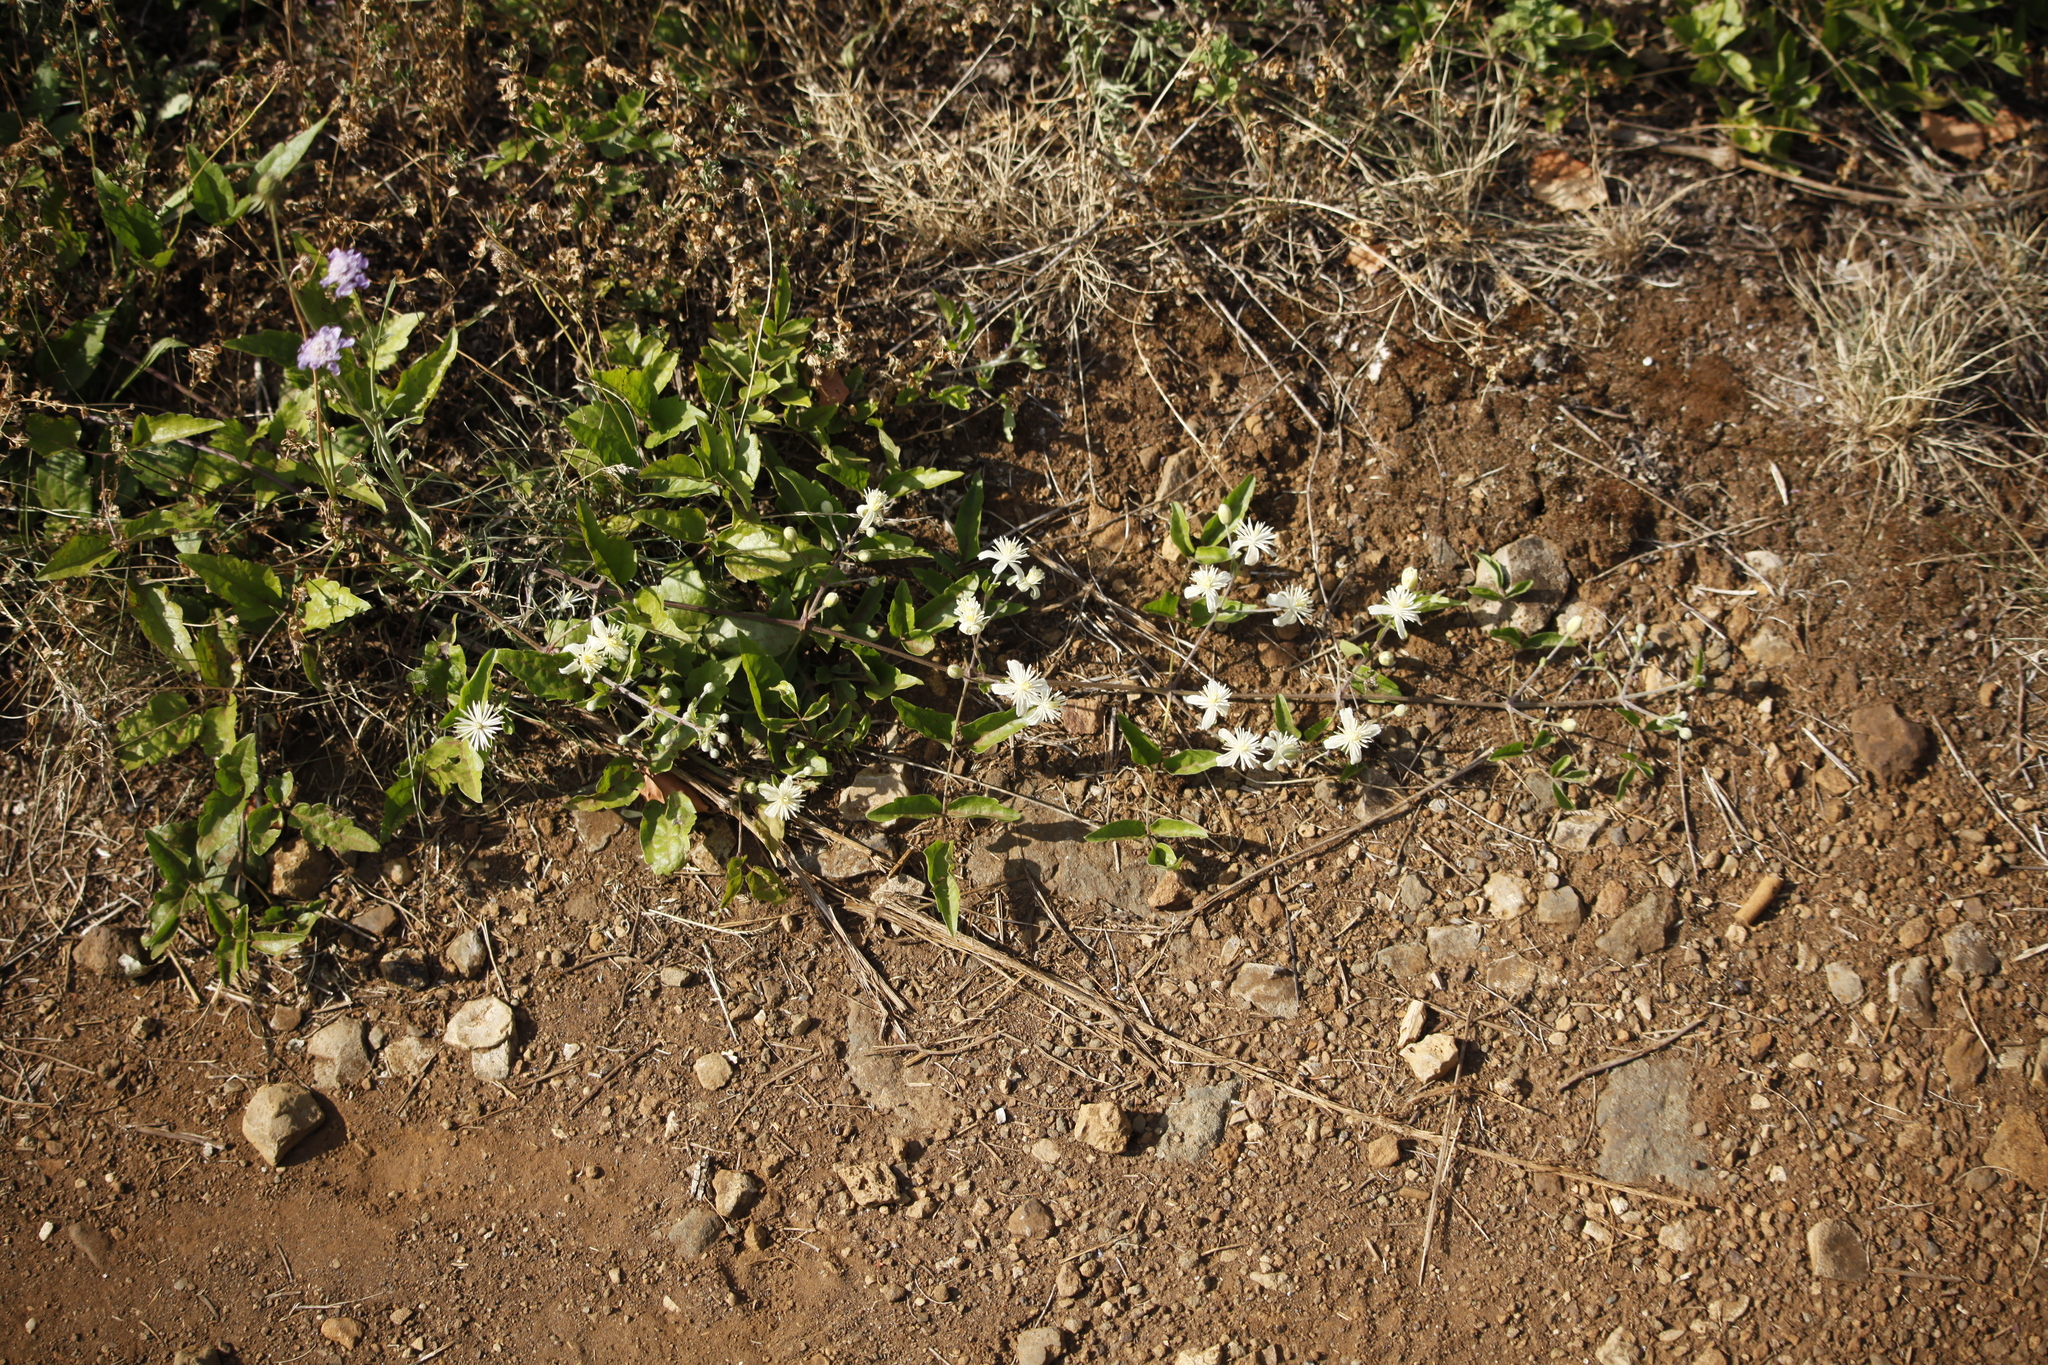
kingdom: Plantae
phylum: Tracheophyta
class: Magnoliopsida
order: Ranunculales
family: Ranunculaceae
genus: Clematis
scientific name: Clematis vitalba
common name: Evergreen clematis
